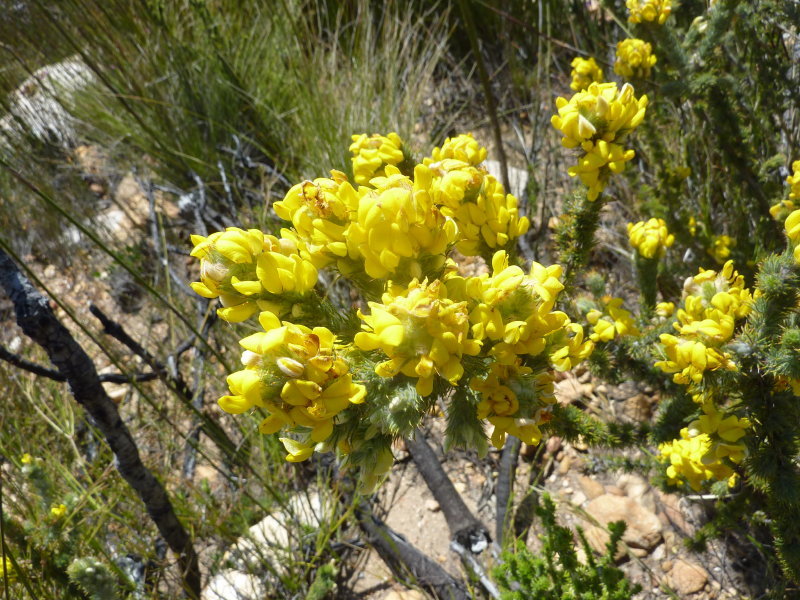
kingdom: Plantae
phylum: Tracheophyta
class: Magnoliopsida
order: Fabales
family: Fabaceae
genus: Aspalathus
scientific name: Aspalathus shawii
